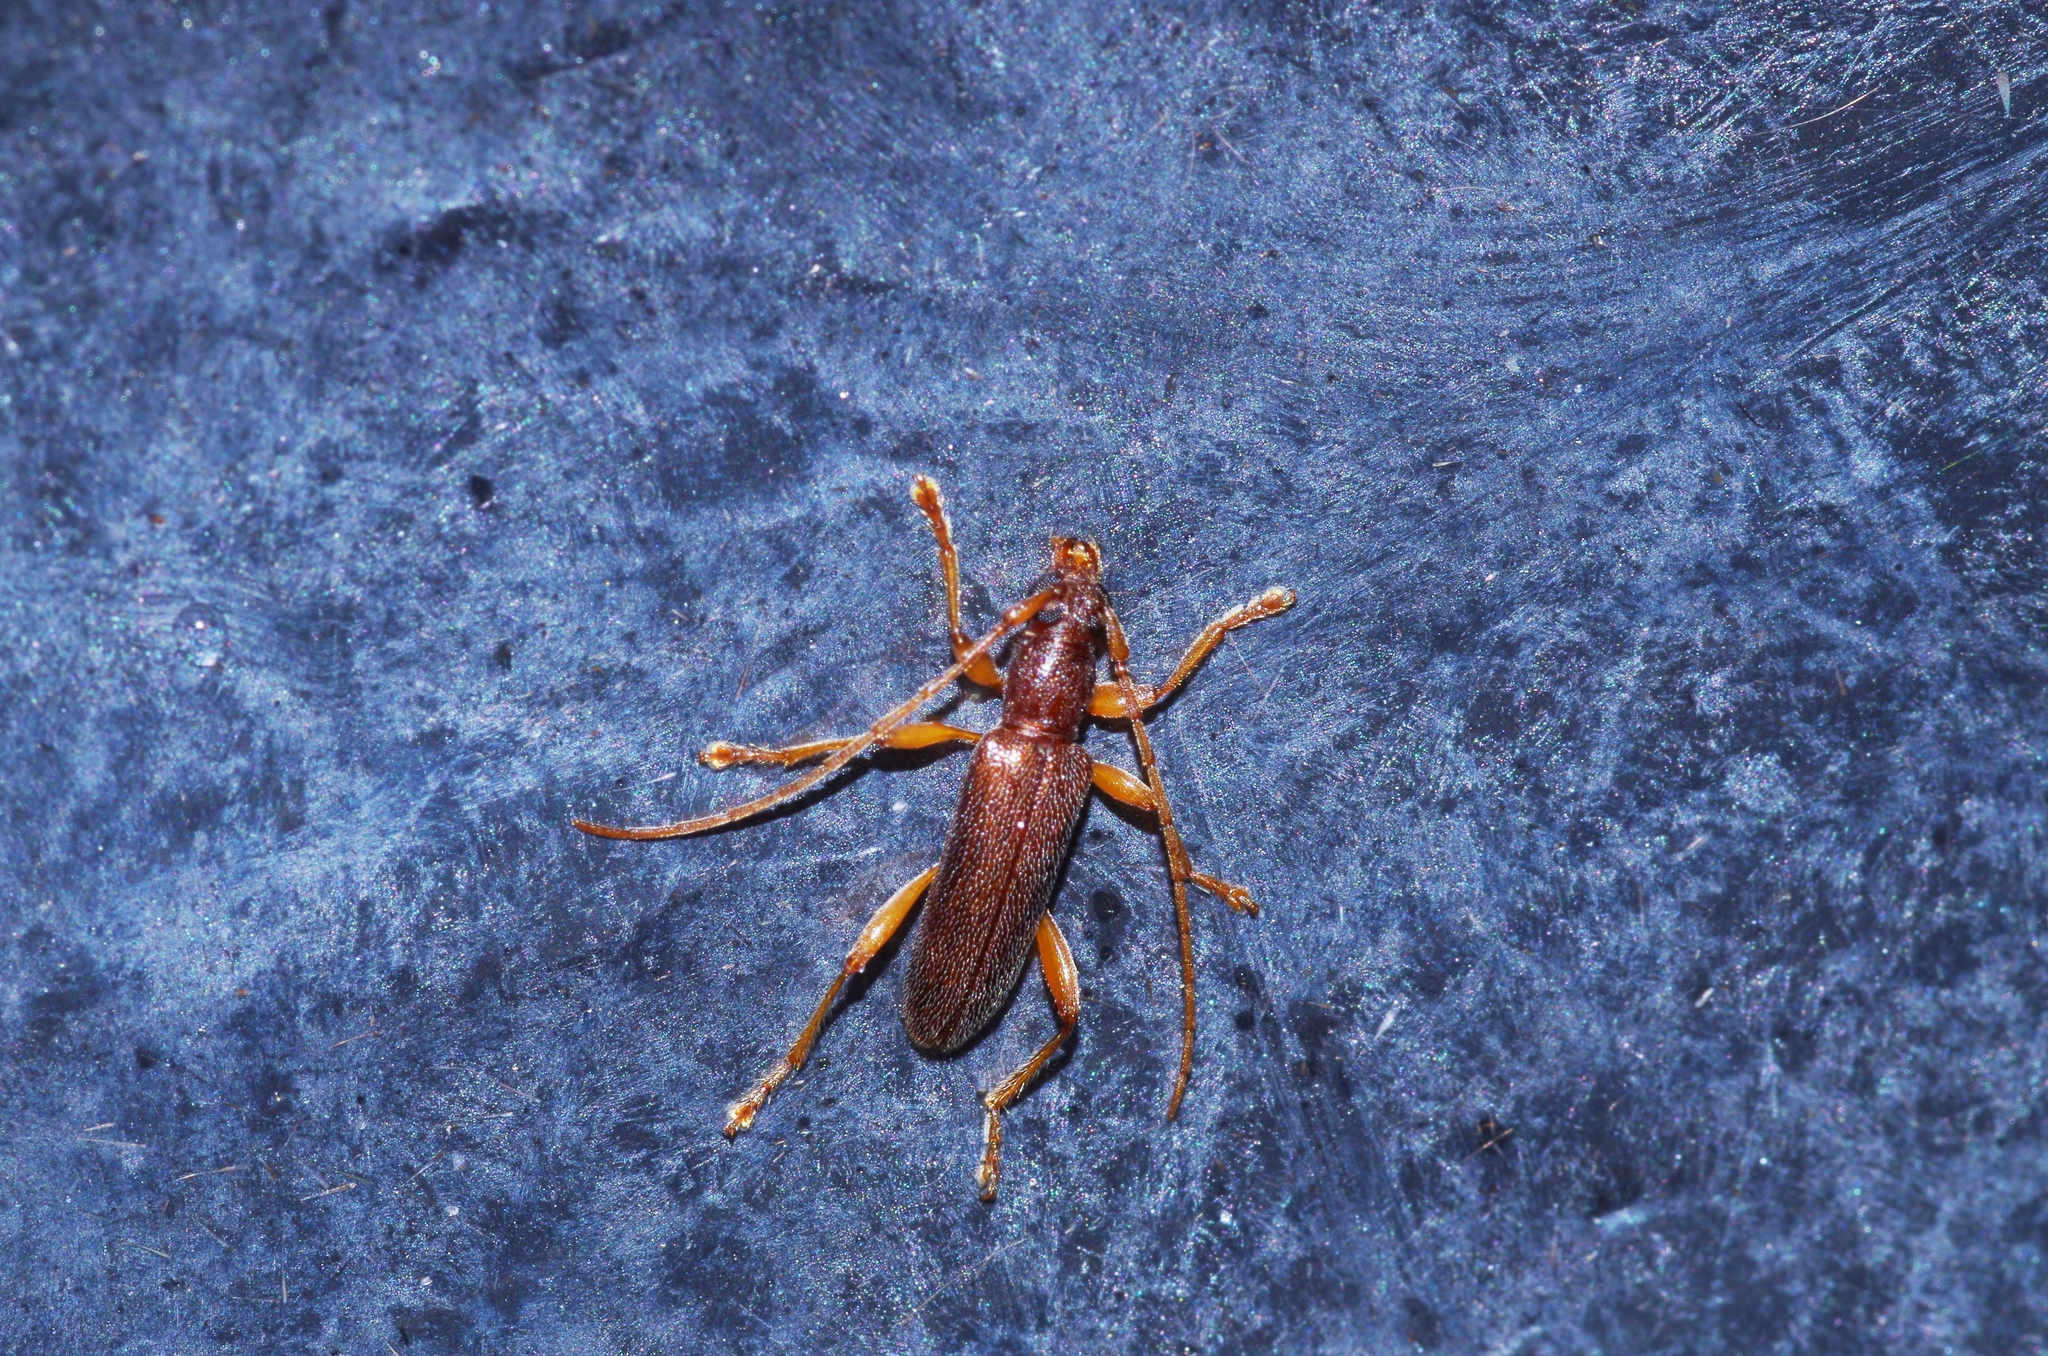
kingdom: Animalia
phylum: Arthropoda
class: Insecta
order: Coleoptera
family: Cerambycidae
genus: Ceresium
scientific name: Ceresium holophaeum
